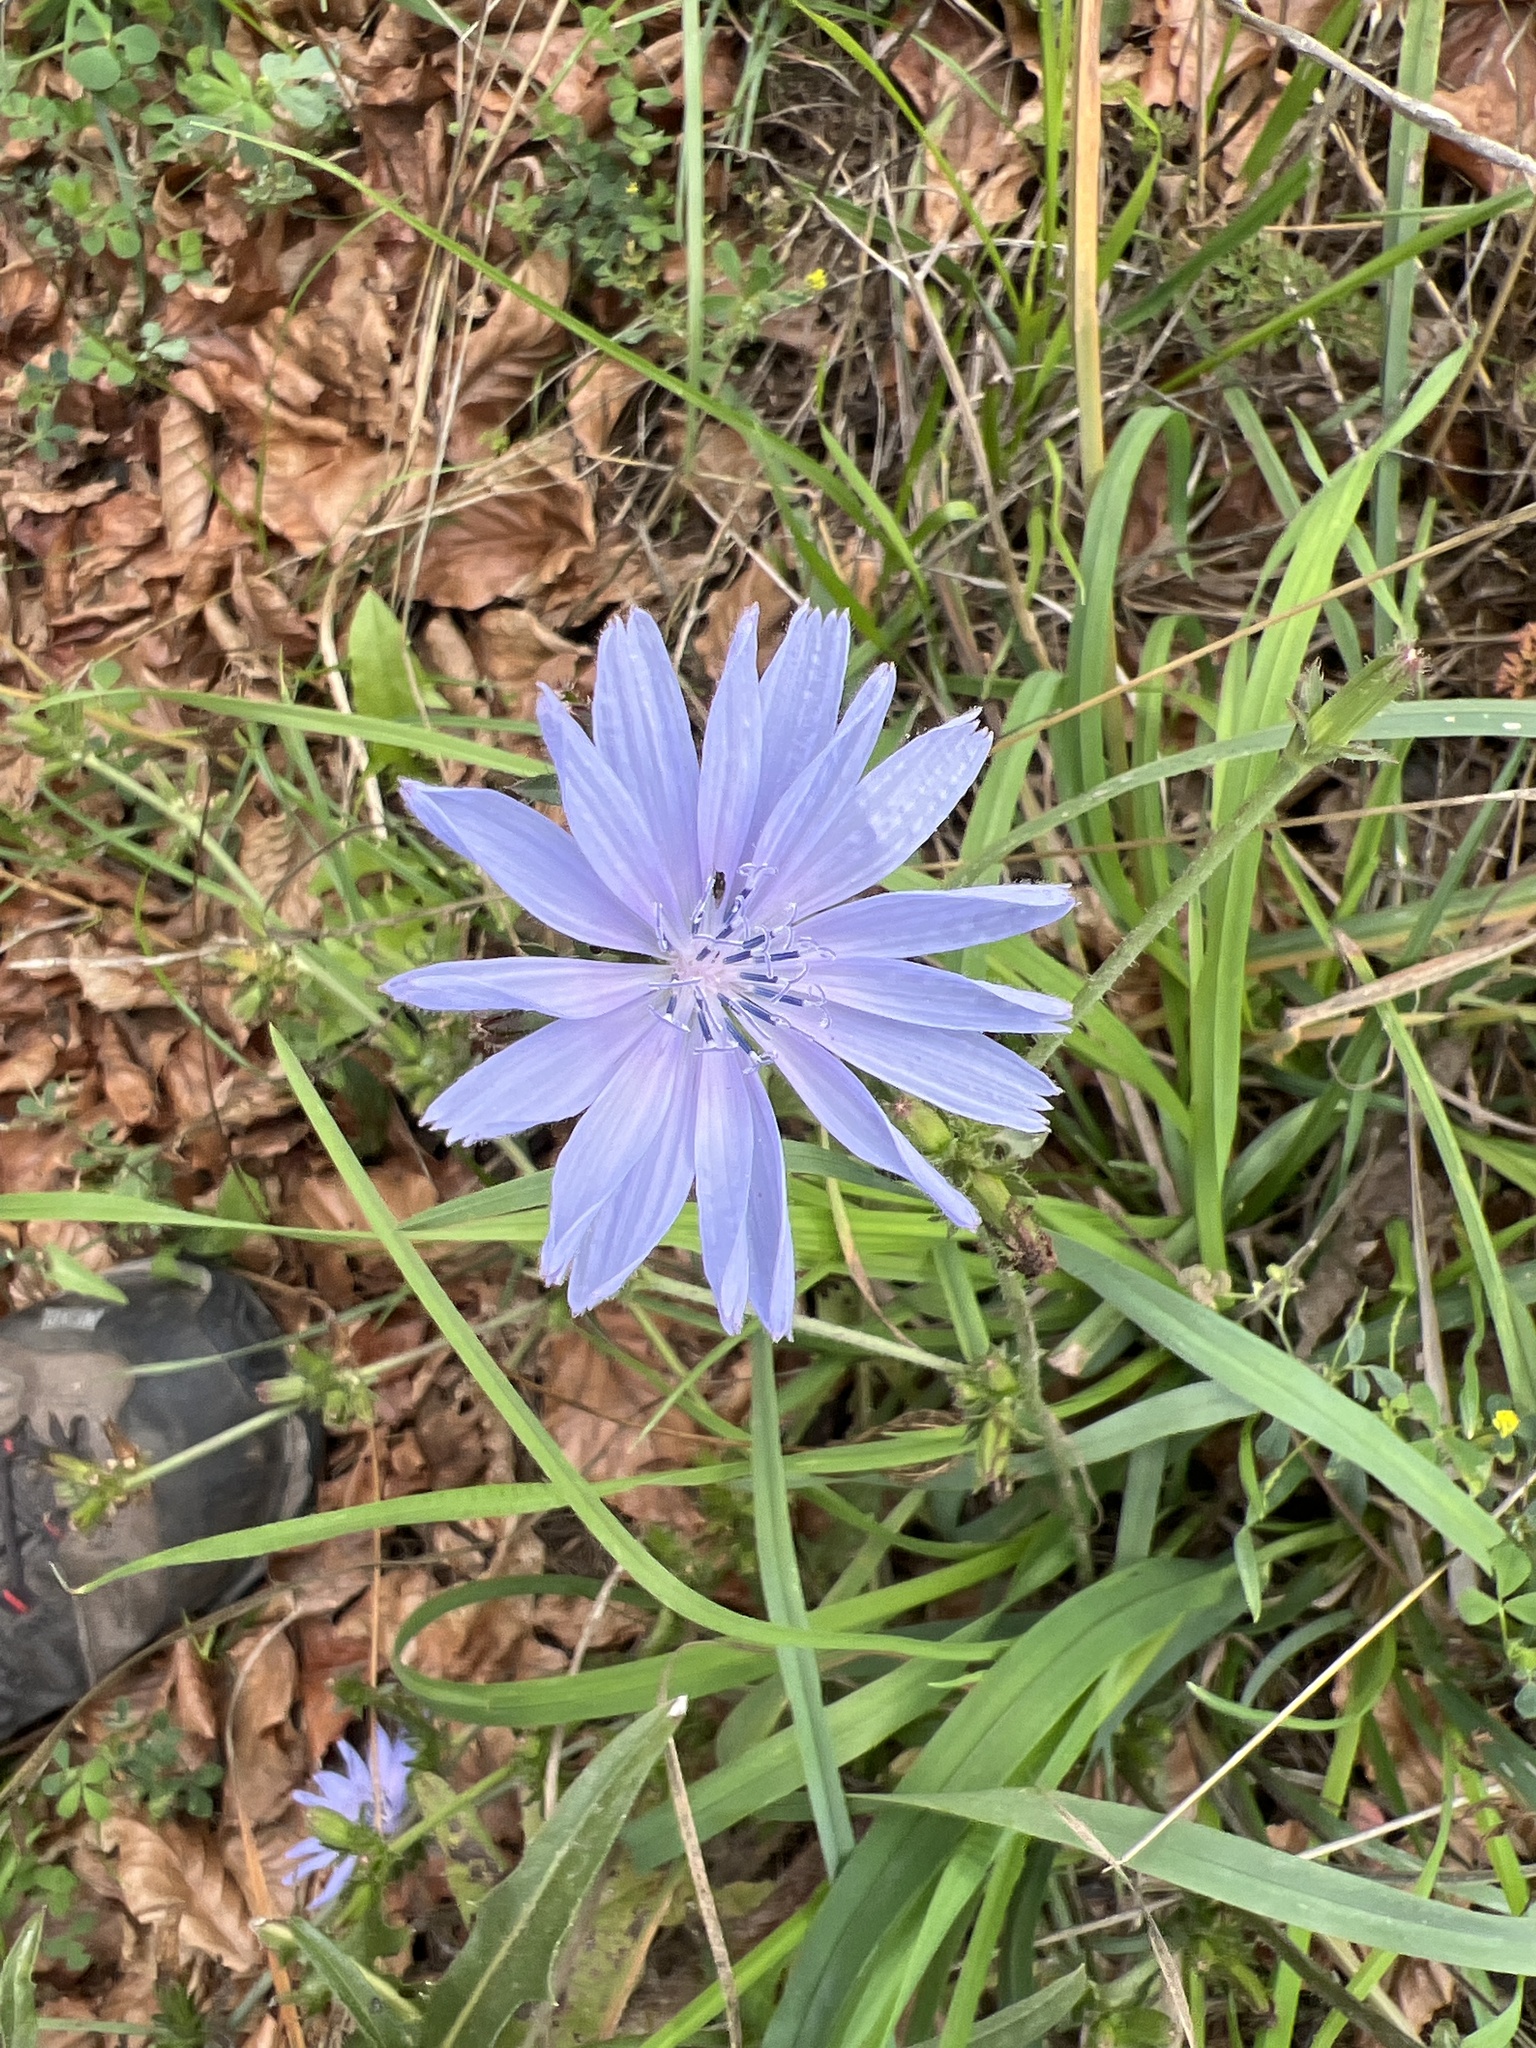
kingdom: Plantae
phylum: Tracheophyta
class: Magnoliopsida
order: Asterales
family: Asteraceae
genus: Cichorium
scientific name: Cichorium intybus
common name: Chicory
